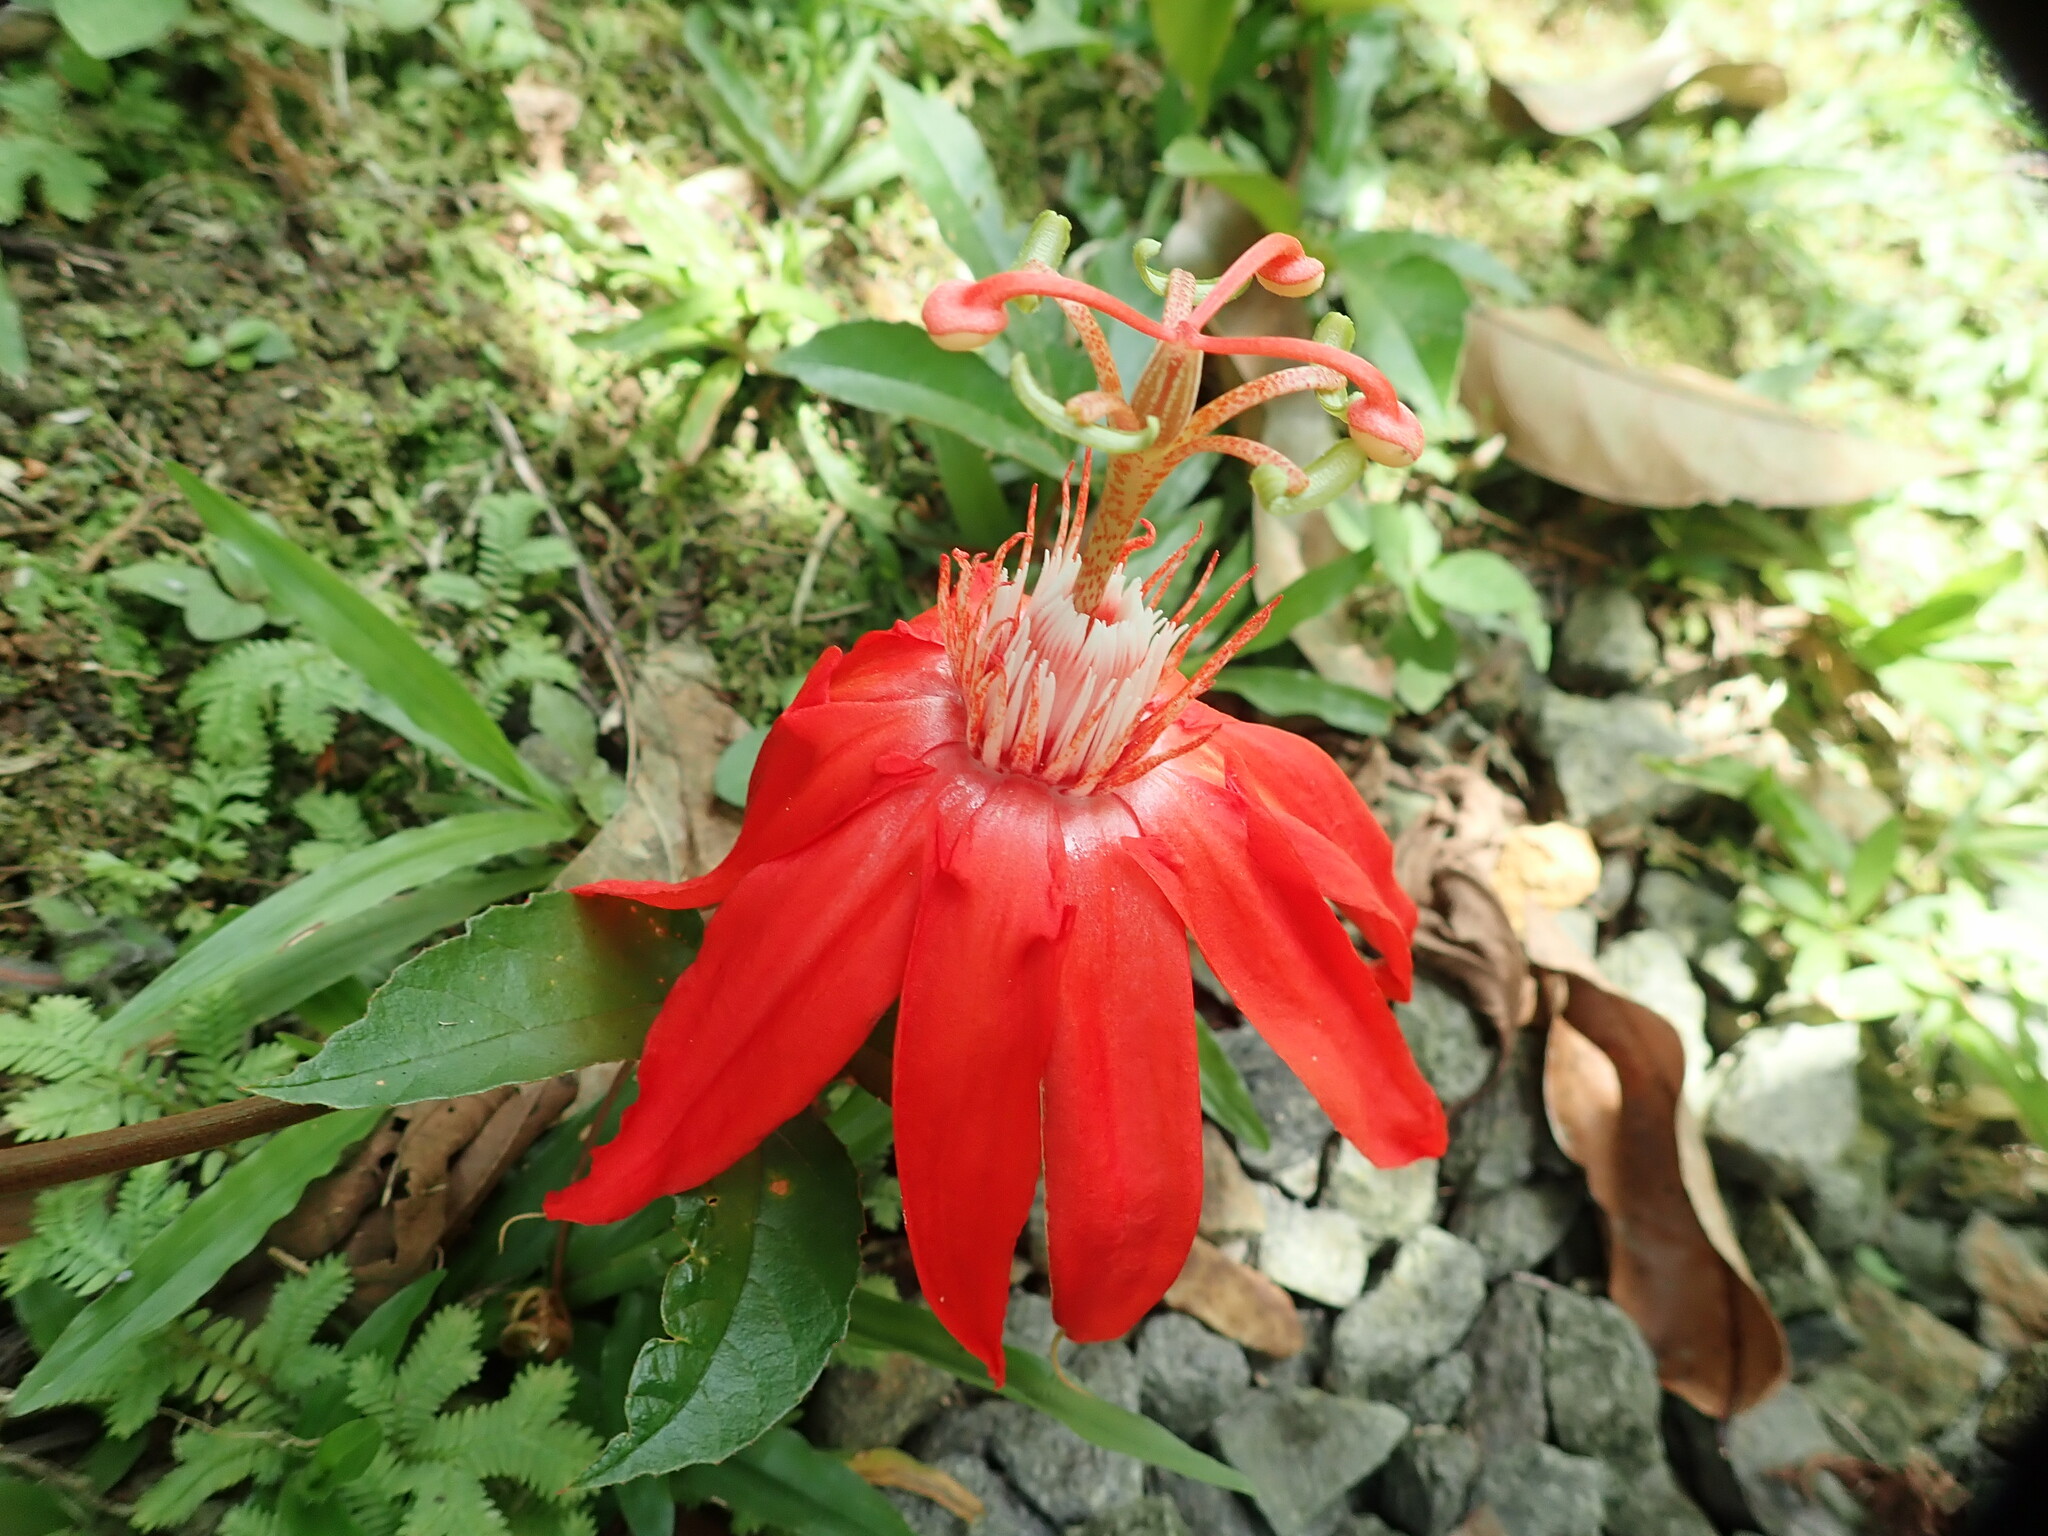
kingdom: Plantae
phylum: Tracheophyta
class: Magnoliopsida
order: Malpighiales
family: Passifloraceae
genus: Passiflora
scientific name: Passiflora vitifolia
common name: Perfumed passionflower
